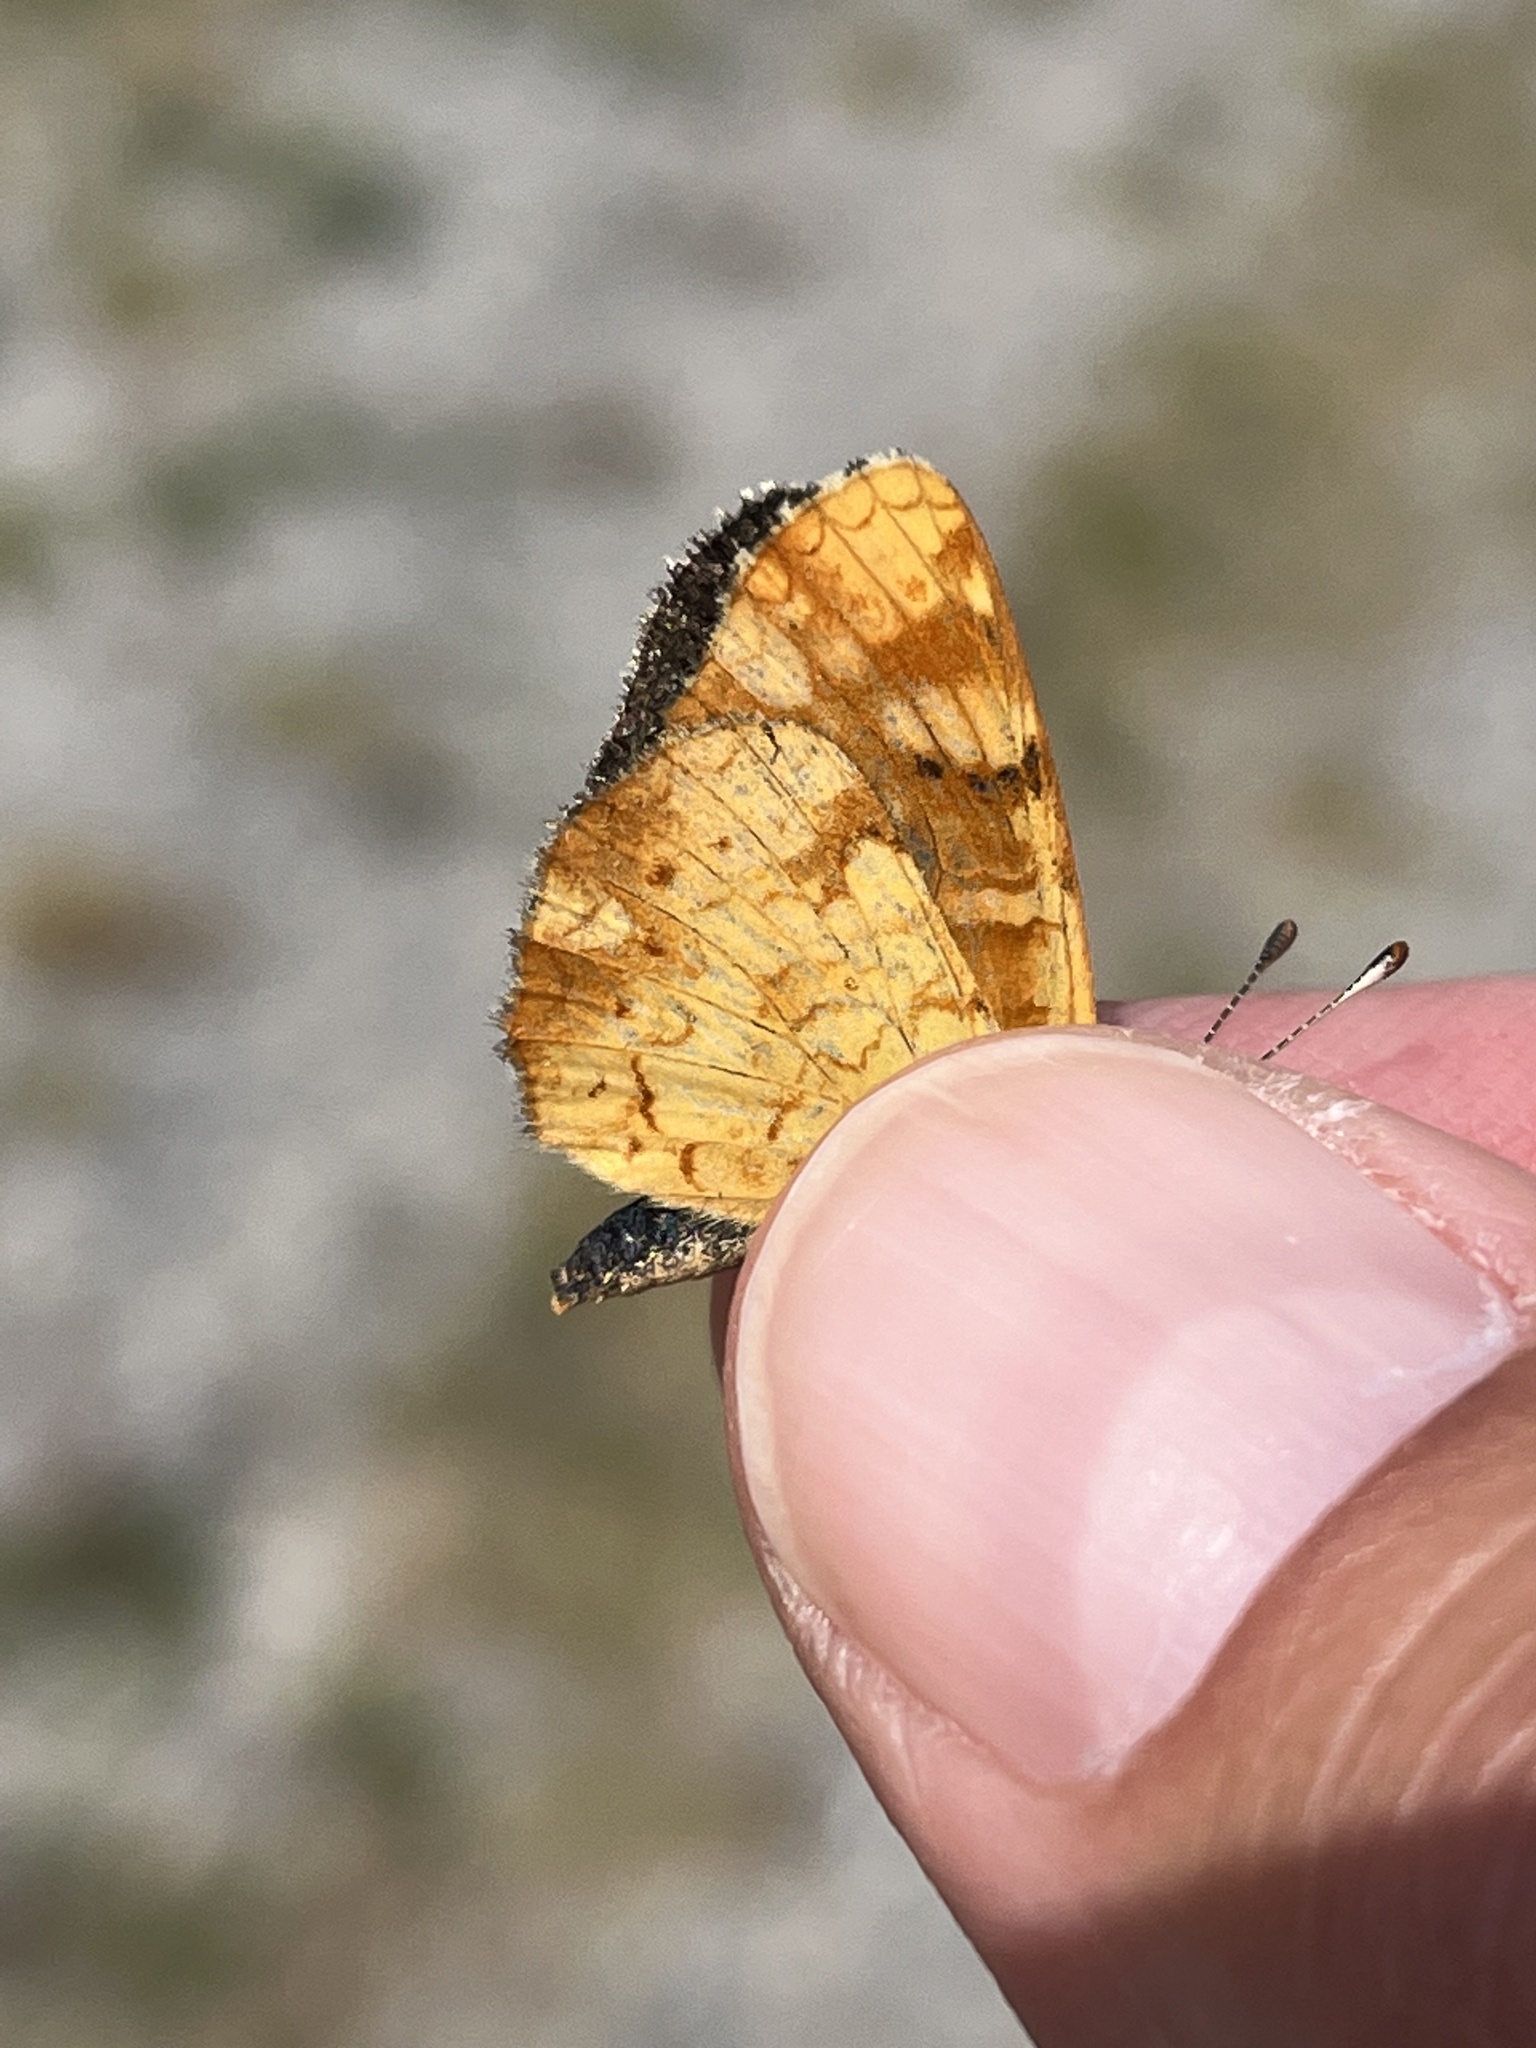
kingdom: Animalia
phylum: Arthropoda
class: Insecta
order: Lepidoptera
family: Nymphalidae
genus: Phyciodes
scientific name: Phyciodes tharos
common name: Pearl crescent
